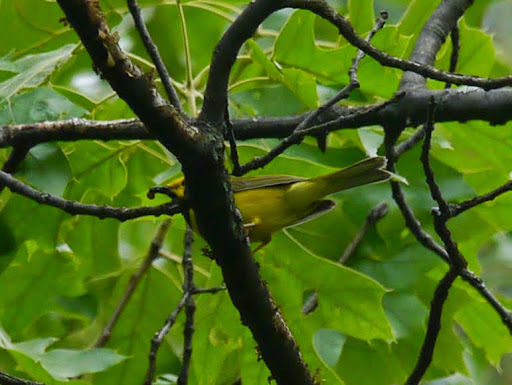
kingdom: Animalia
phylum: Chordata
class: Aves
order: Passeriformes
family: Parulidae
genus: Setophaga
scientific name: Setophaga citrina
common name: Hooded warbler
